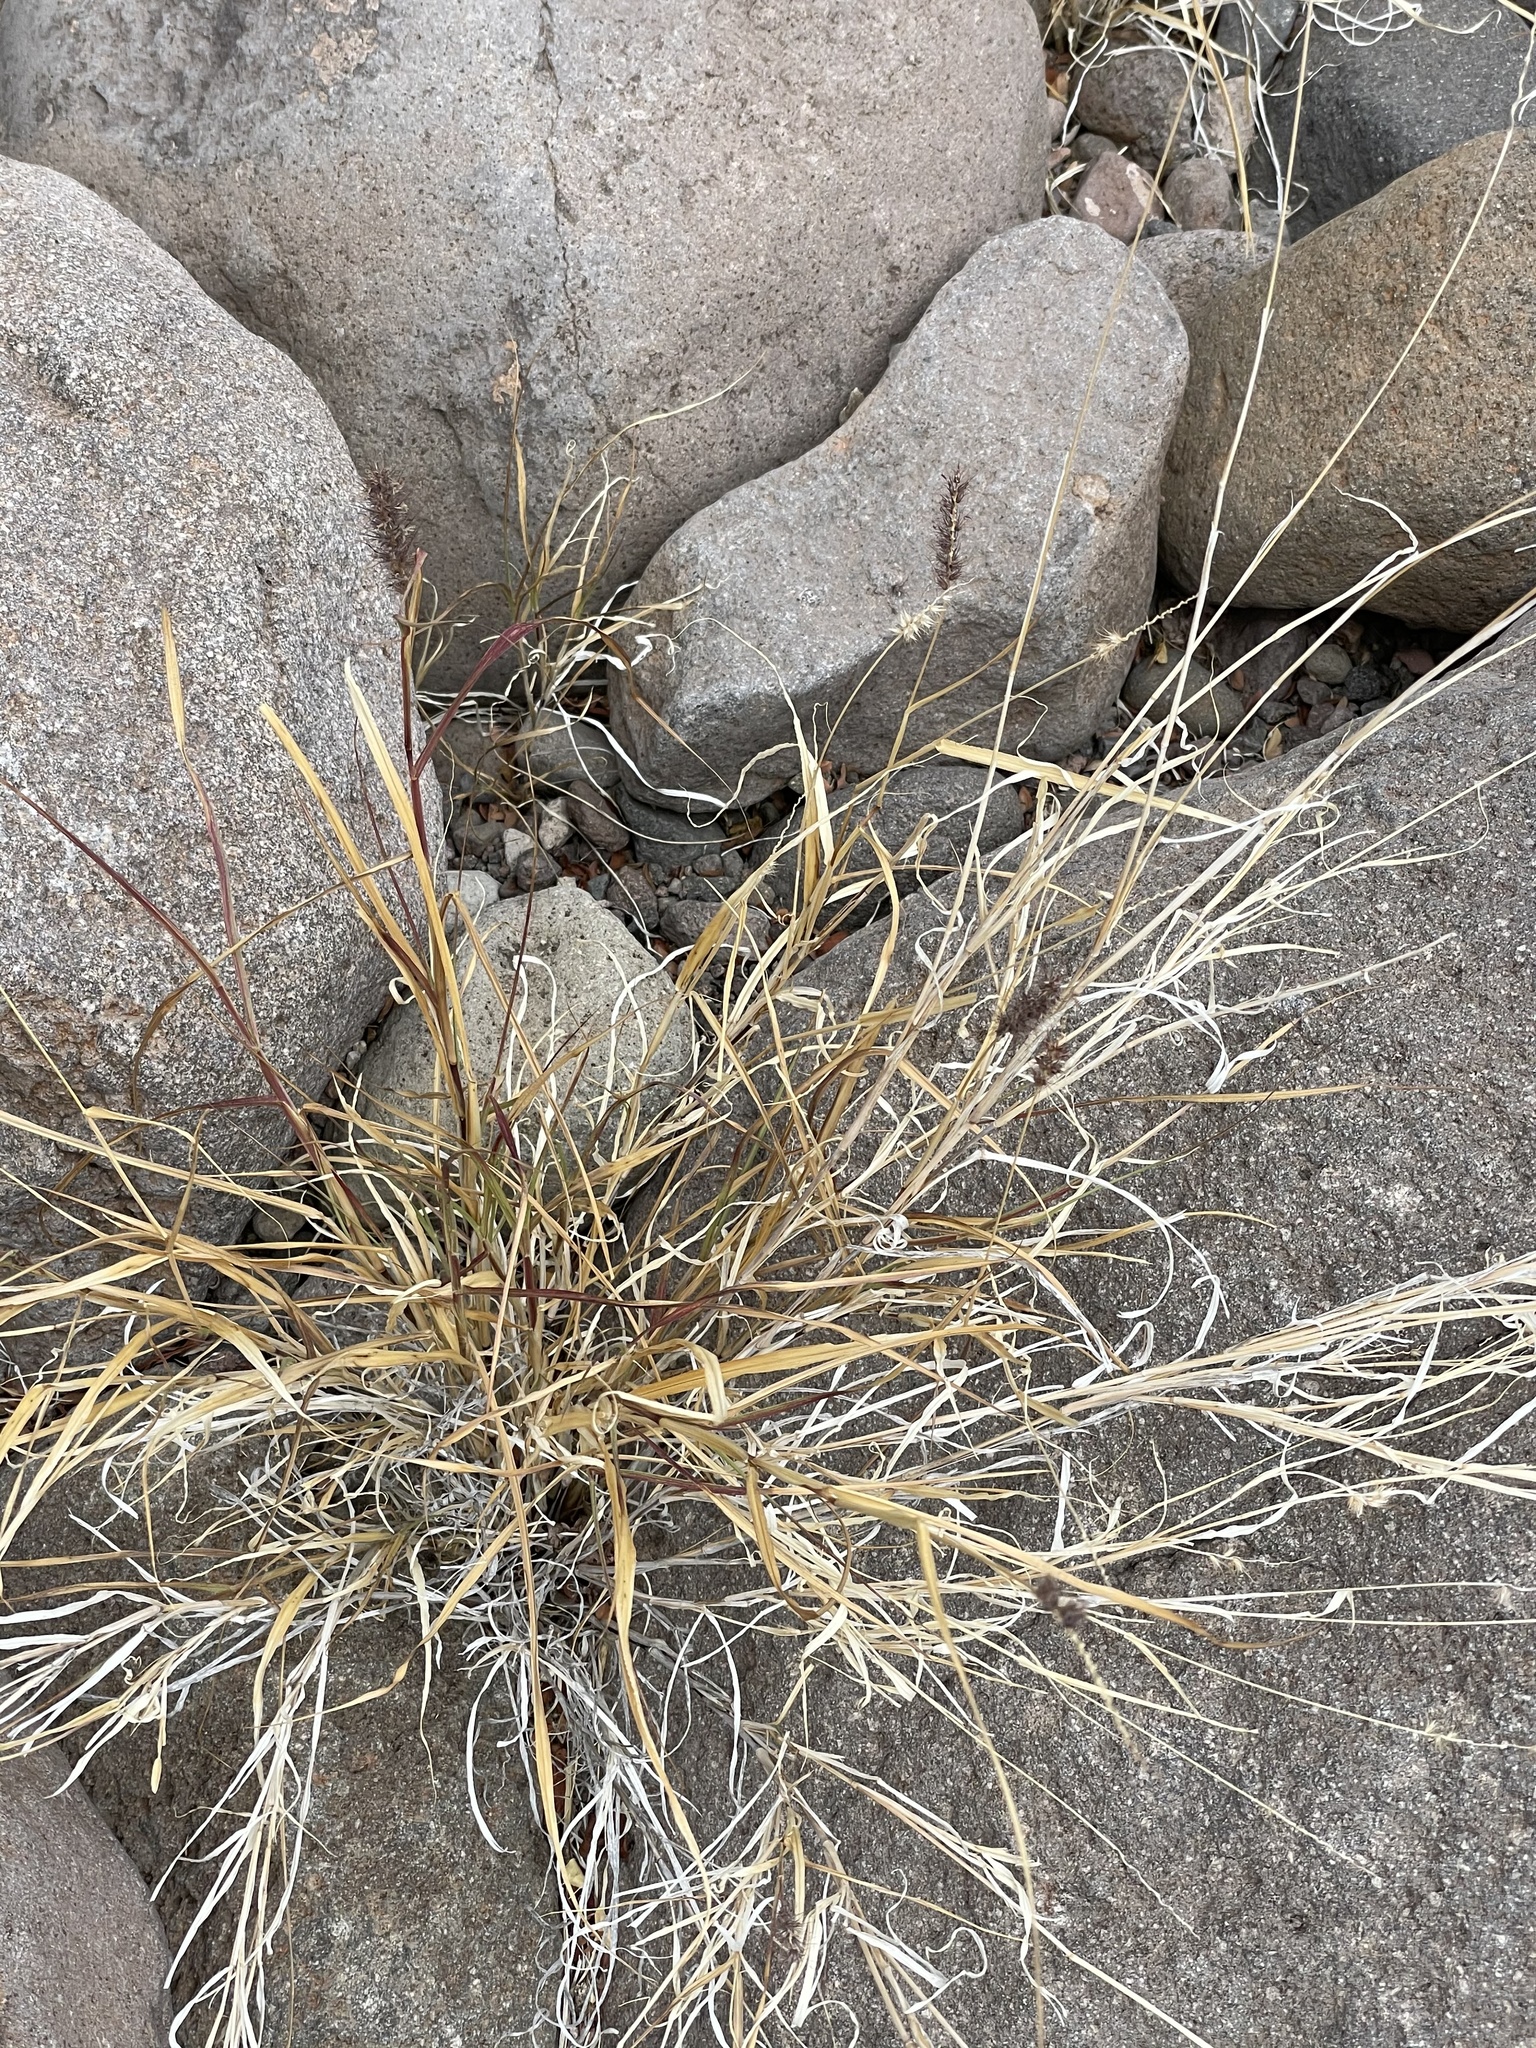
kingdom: Plantae
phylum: Tracheophyta
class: Liliopsida
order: Poales
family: Poaceae
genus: Cenchrus
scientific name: Cenchrus ciliaris
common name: Buffelgrass
